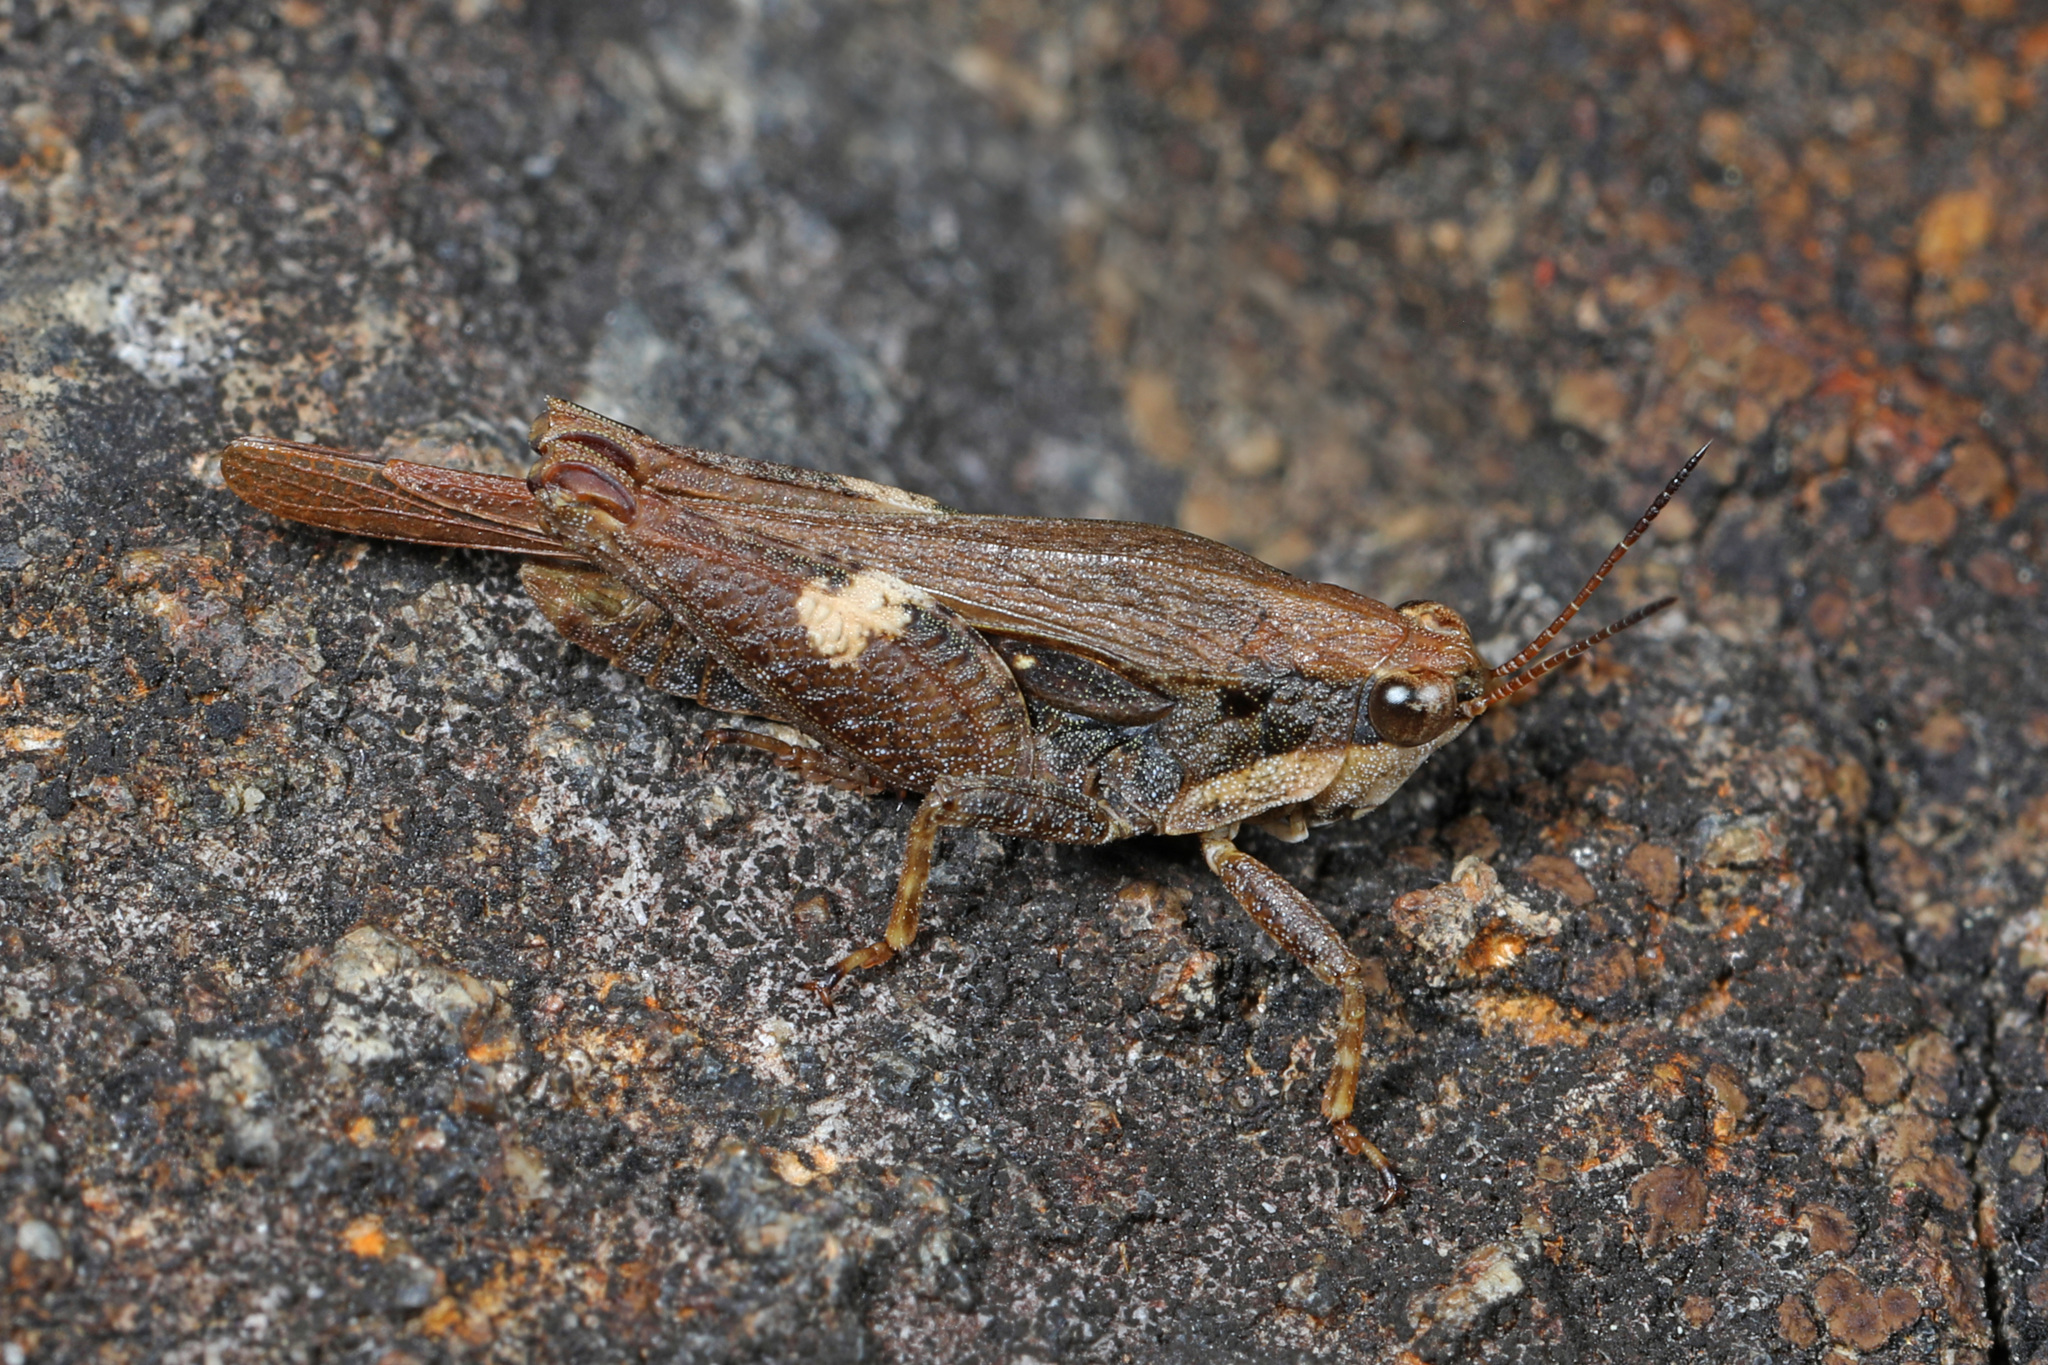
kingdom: Animalia
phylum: Arthropoda
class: Insecta
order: Orthoptera
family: Tetrigidae
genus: Tettigidea
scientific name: Tettigidea laterale
